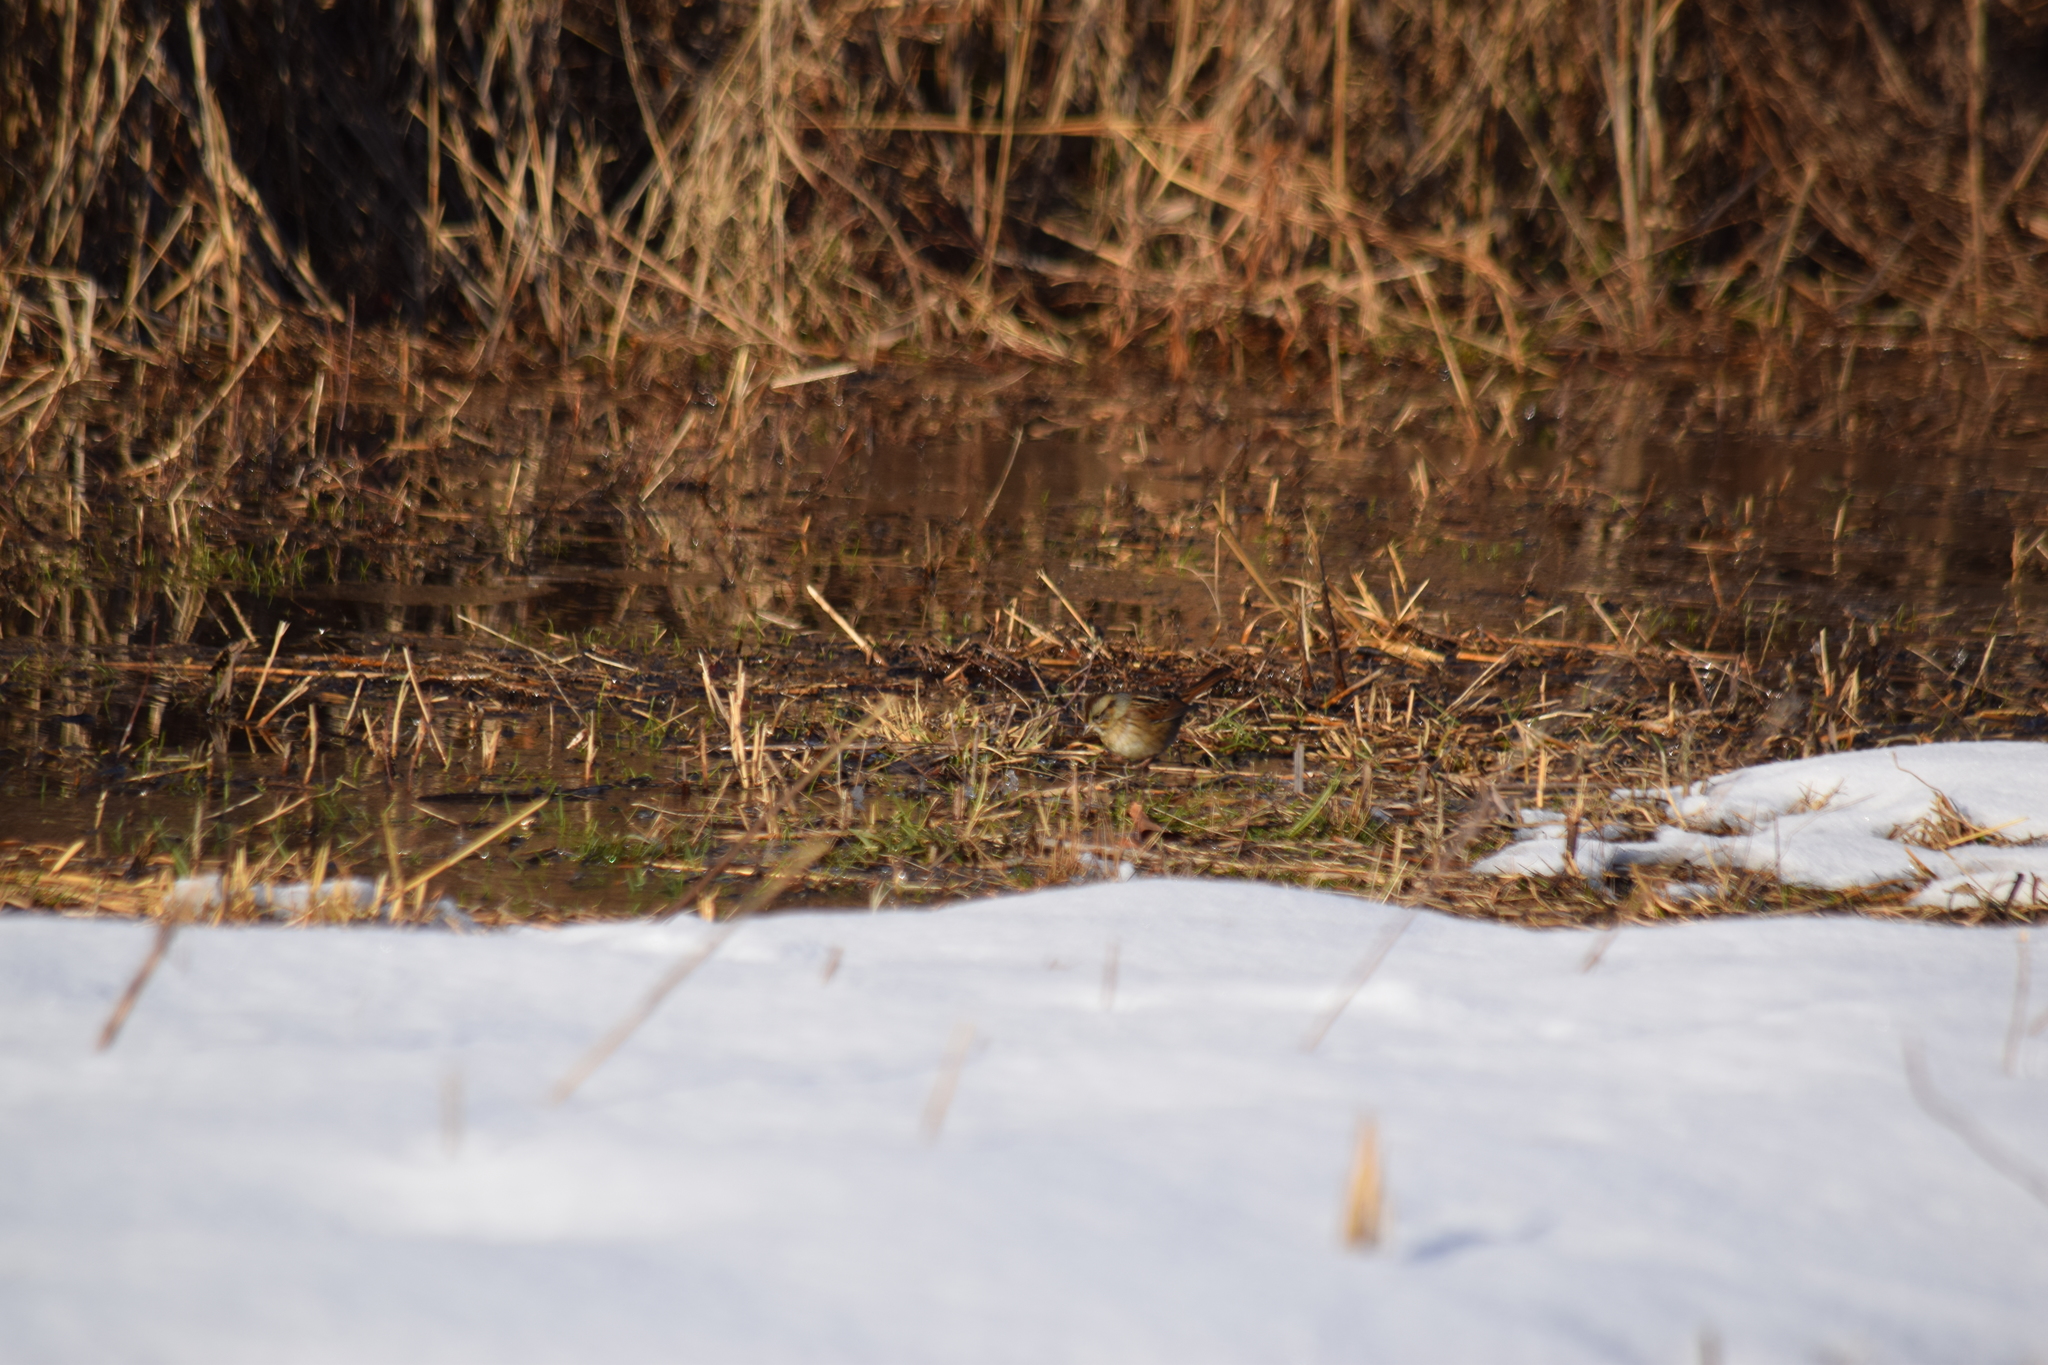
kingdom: Animalia
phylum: Chordata
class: Aves
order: Passeriformes
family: Passerellidae
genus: Melospiza
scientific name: Melospiza georgiana
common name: Swamp sparrow
